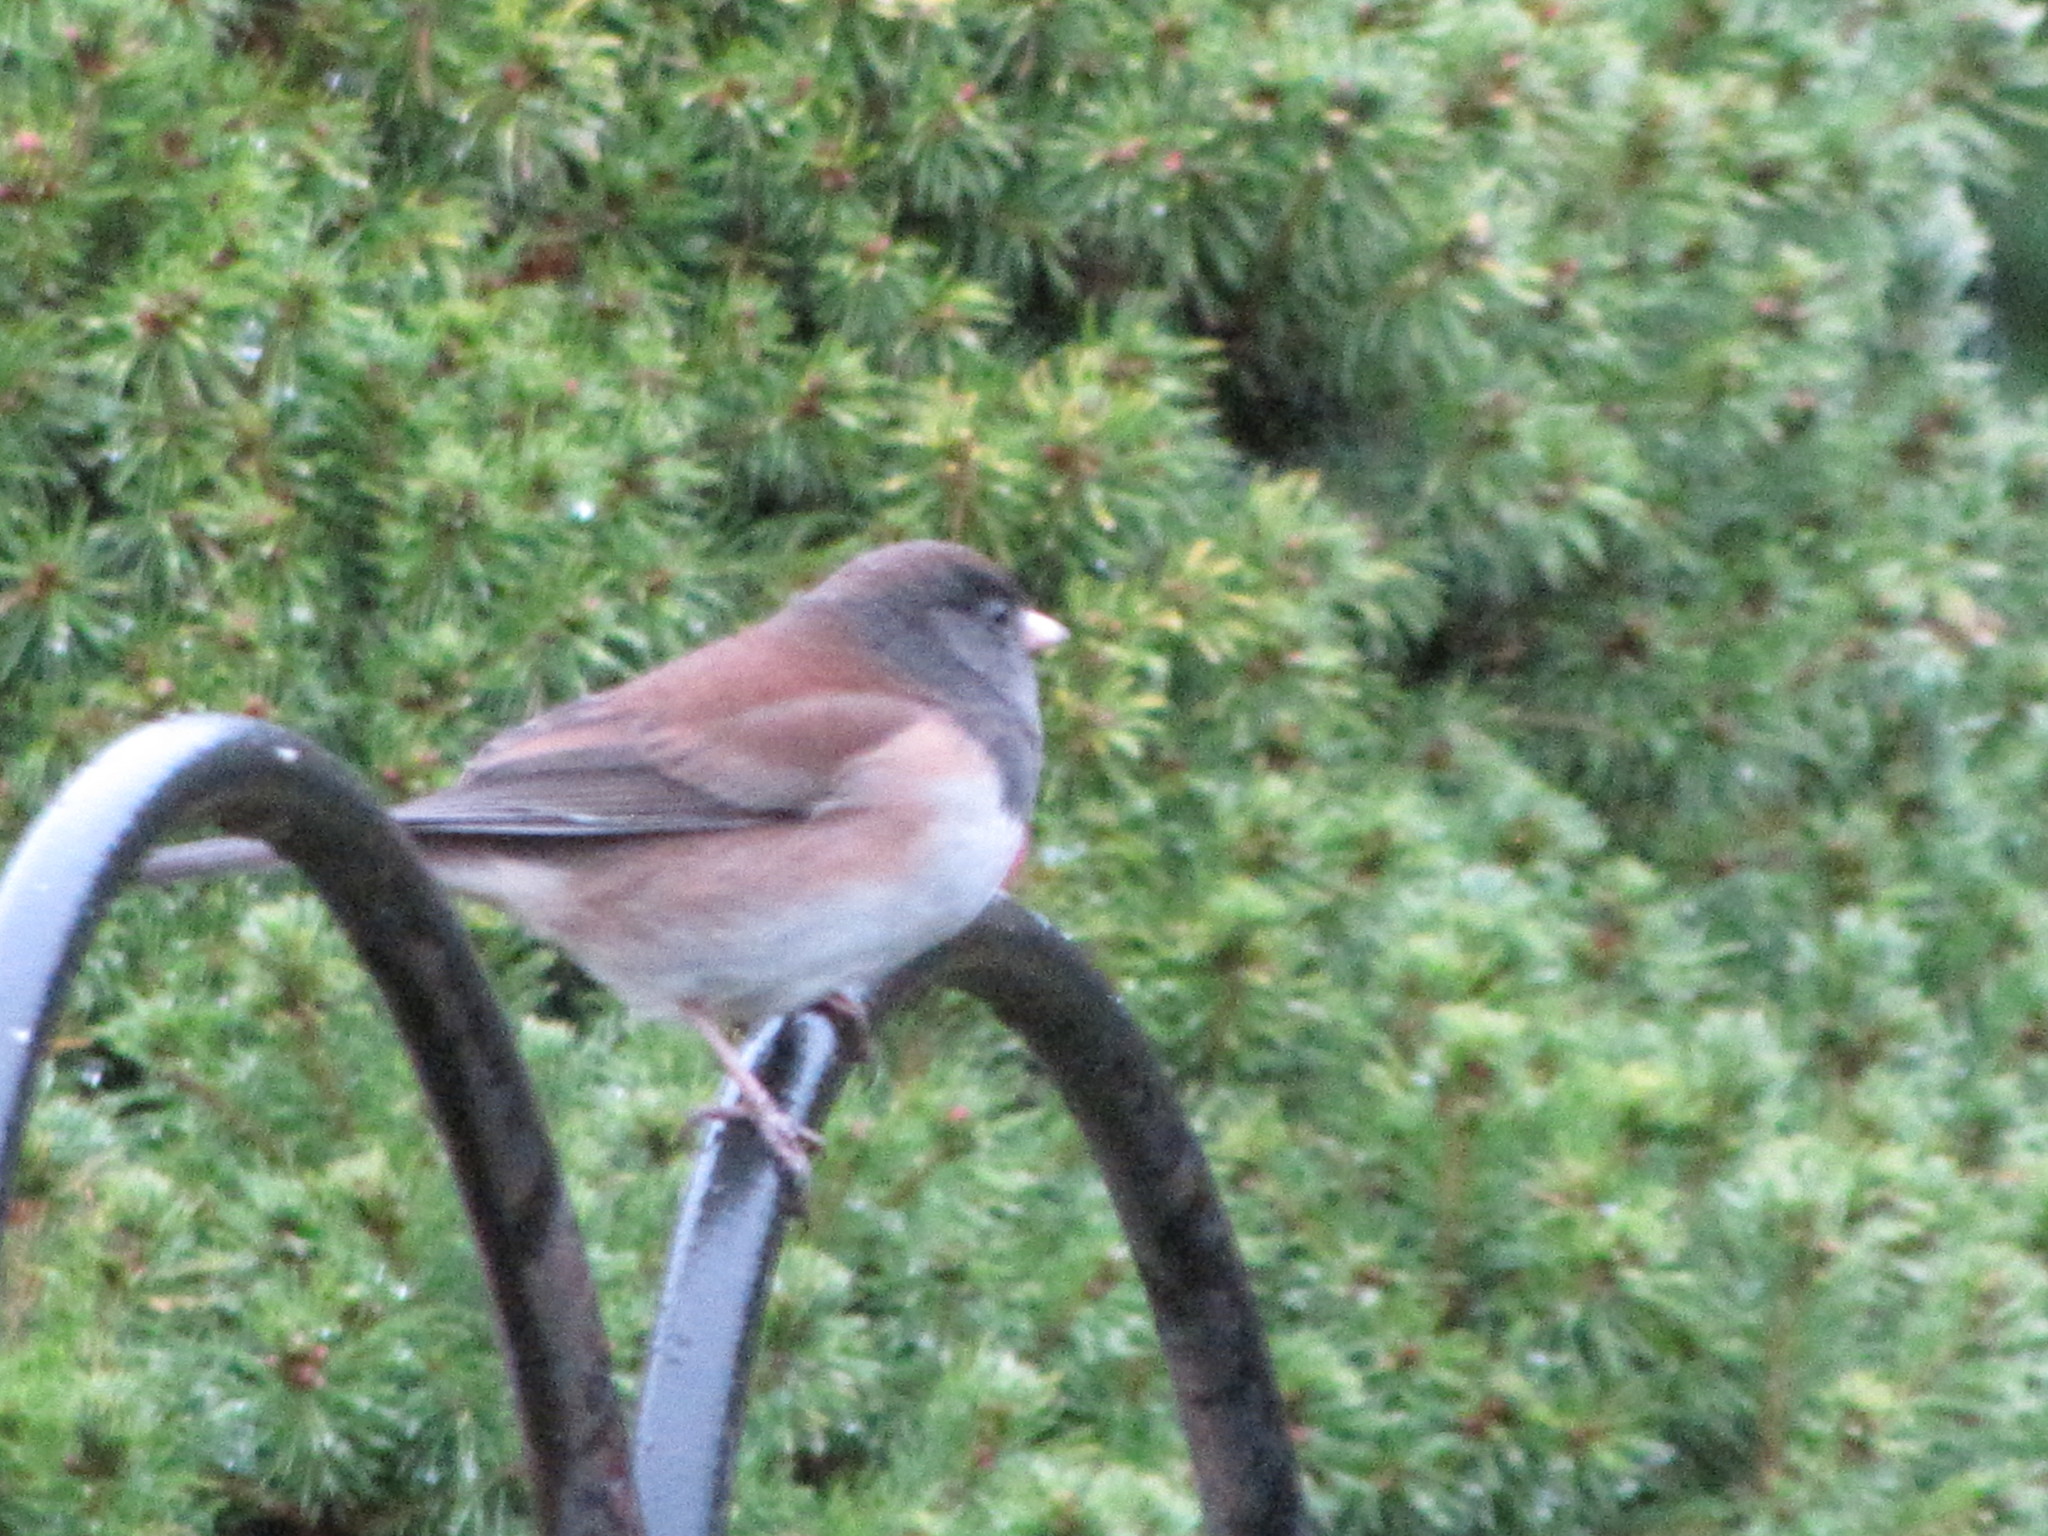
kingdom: Animalia
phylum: Chordata
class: Aves
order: Passeriformes
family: Passerellidae
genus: Junco
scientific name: Junco hyemalis
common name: Dark-eyed junco
